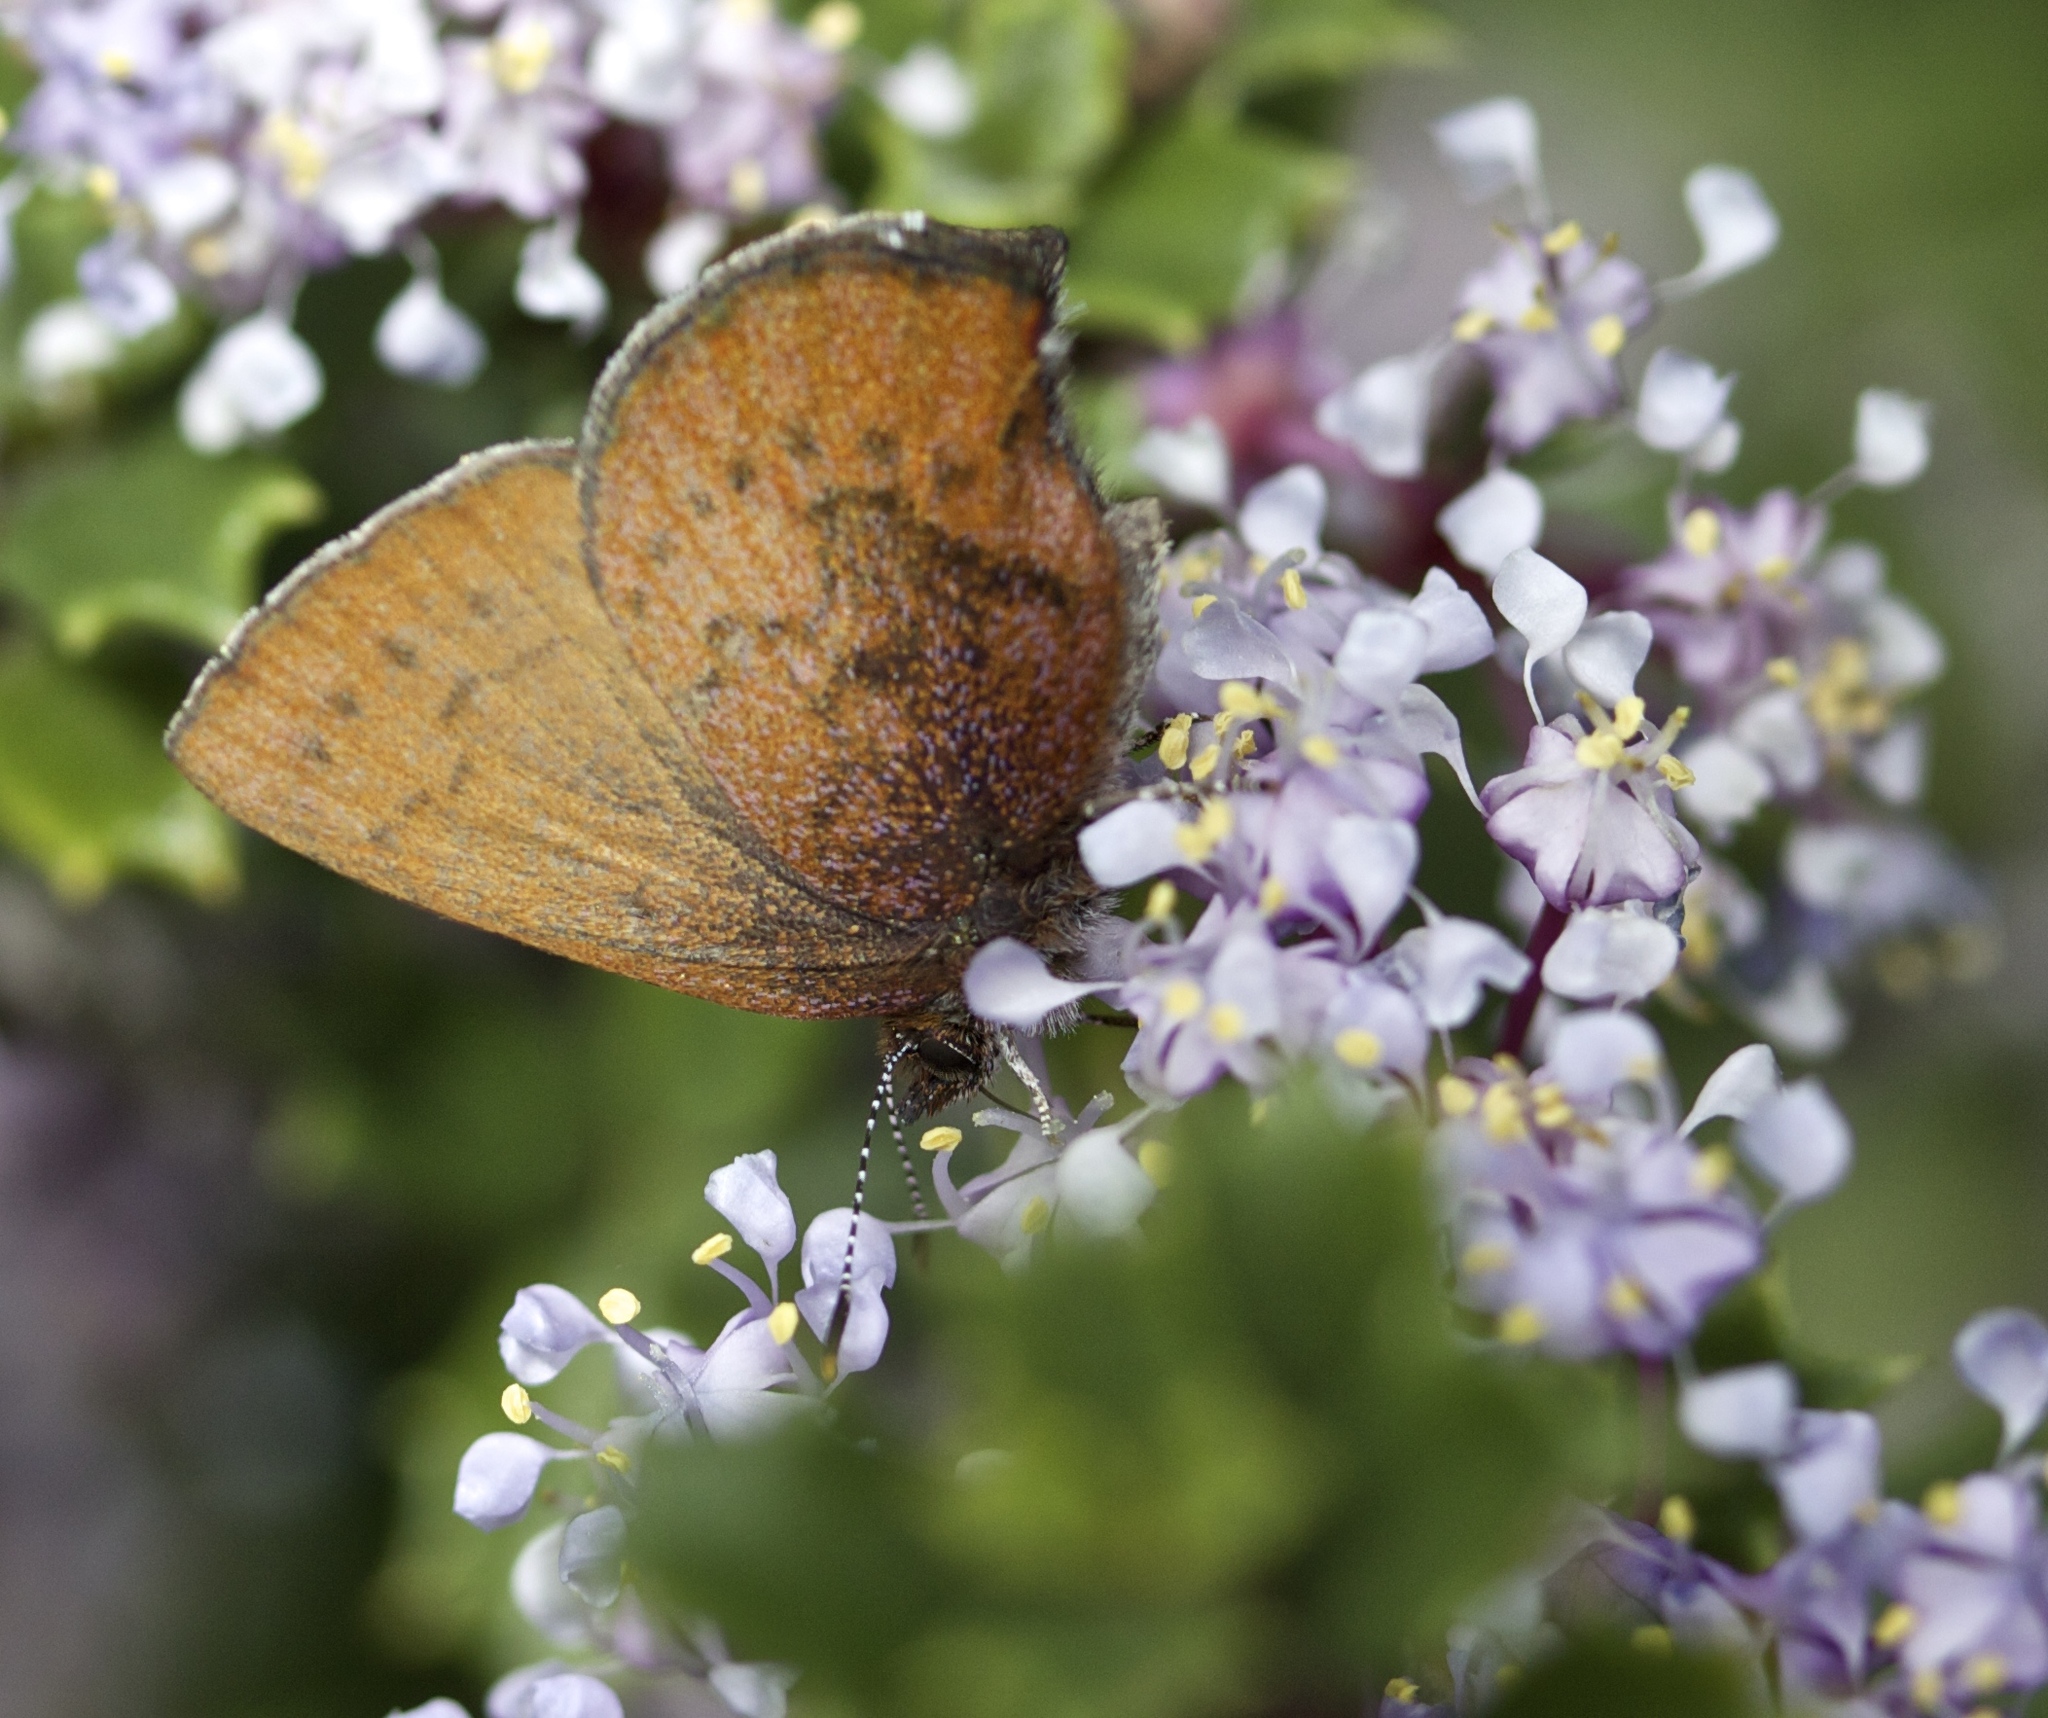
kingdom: Animalia
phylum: Arthropoda
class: Insecta
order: Lepidoptera
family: Lycaenidae
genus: Incisalia
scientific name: Incisalia irioides
